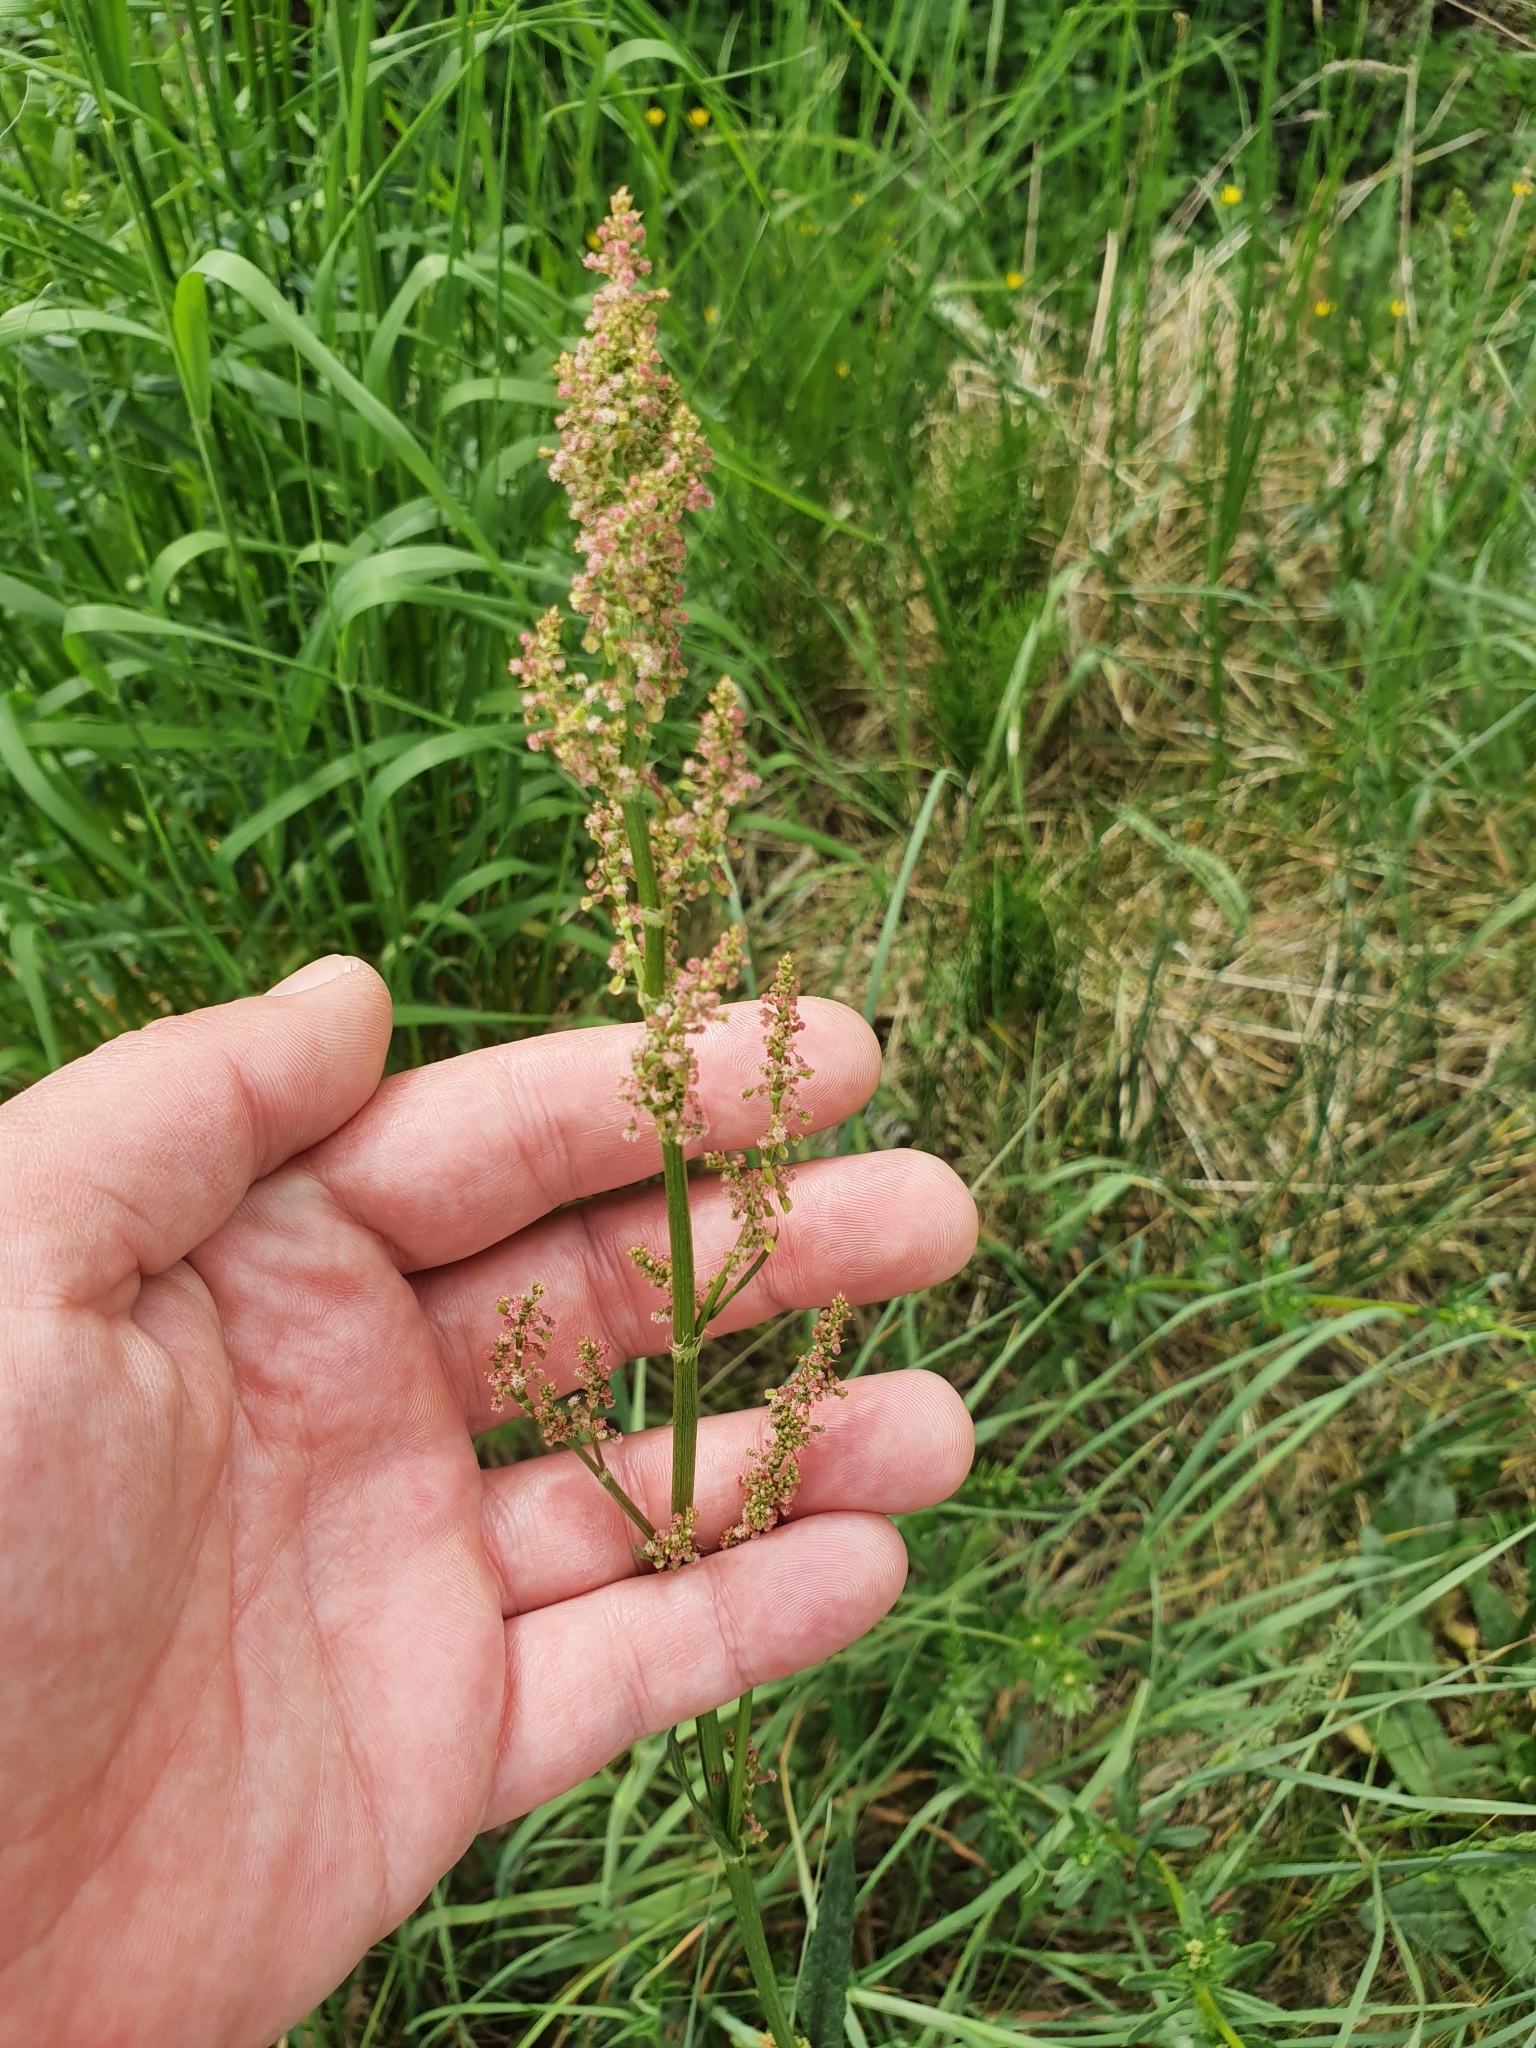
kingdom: Plantae
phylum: Tracheophyta
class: Magnoliopsida
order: Caryophyllales
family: Polygonaceae
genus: Rumex
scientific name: Rumex acetosa
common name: Garden sorrel
